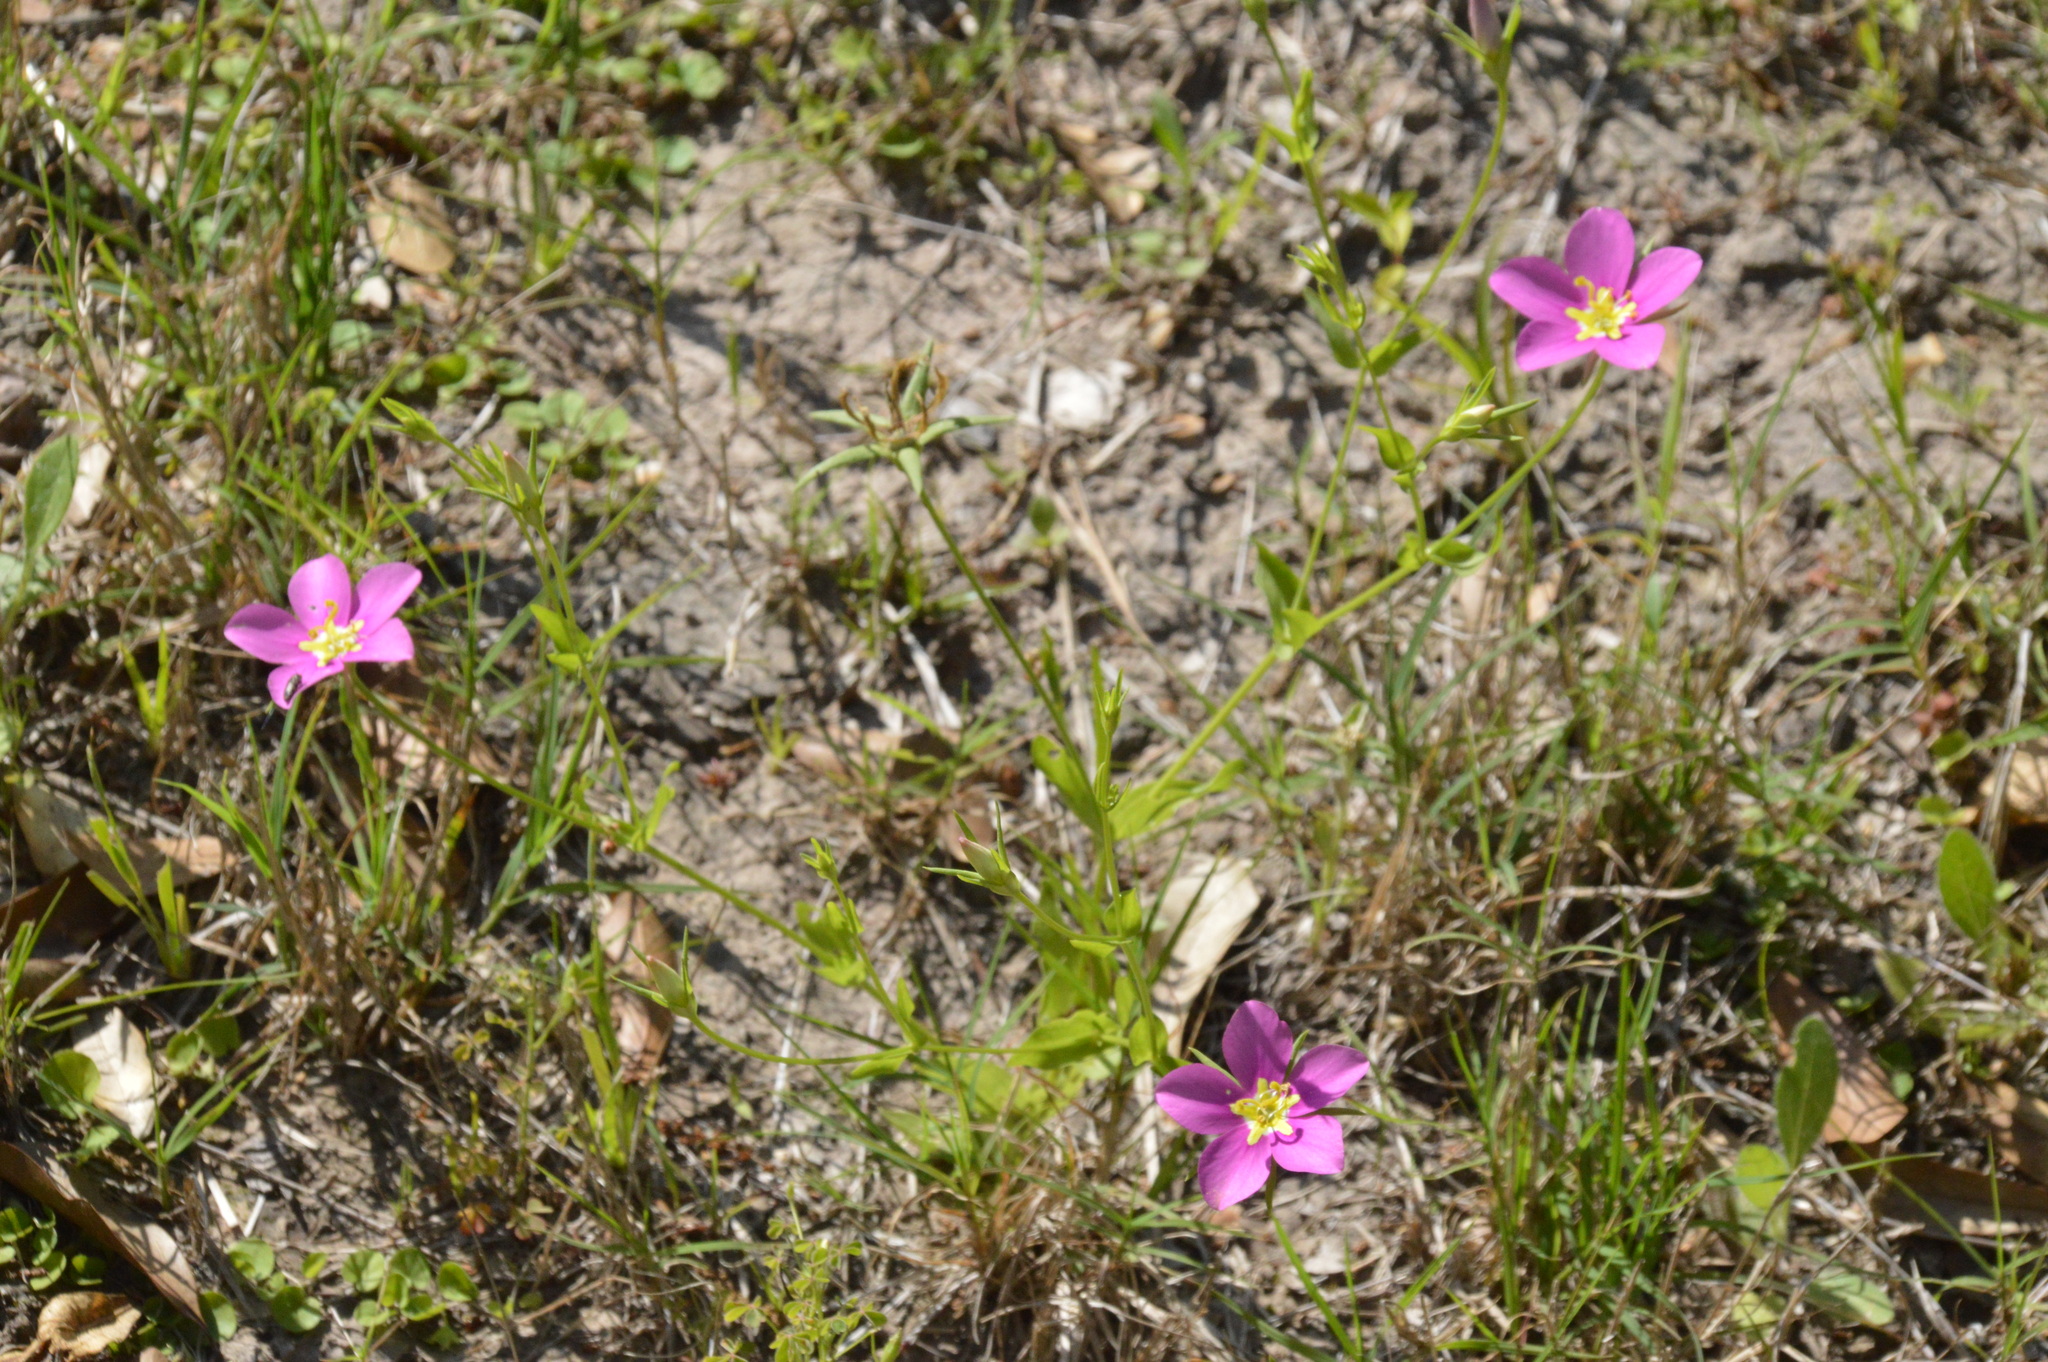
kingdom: Plantae
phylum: Tracheophyta
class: Magnoliopsida
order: Gentianales
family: Gentianaceae
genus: Sabatia
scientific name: Sabatia campestris
